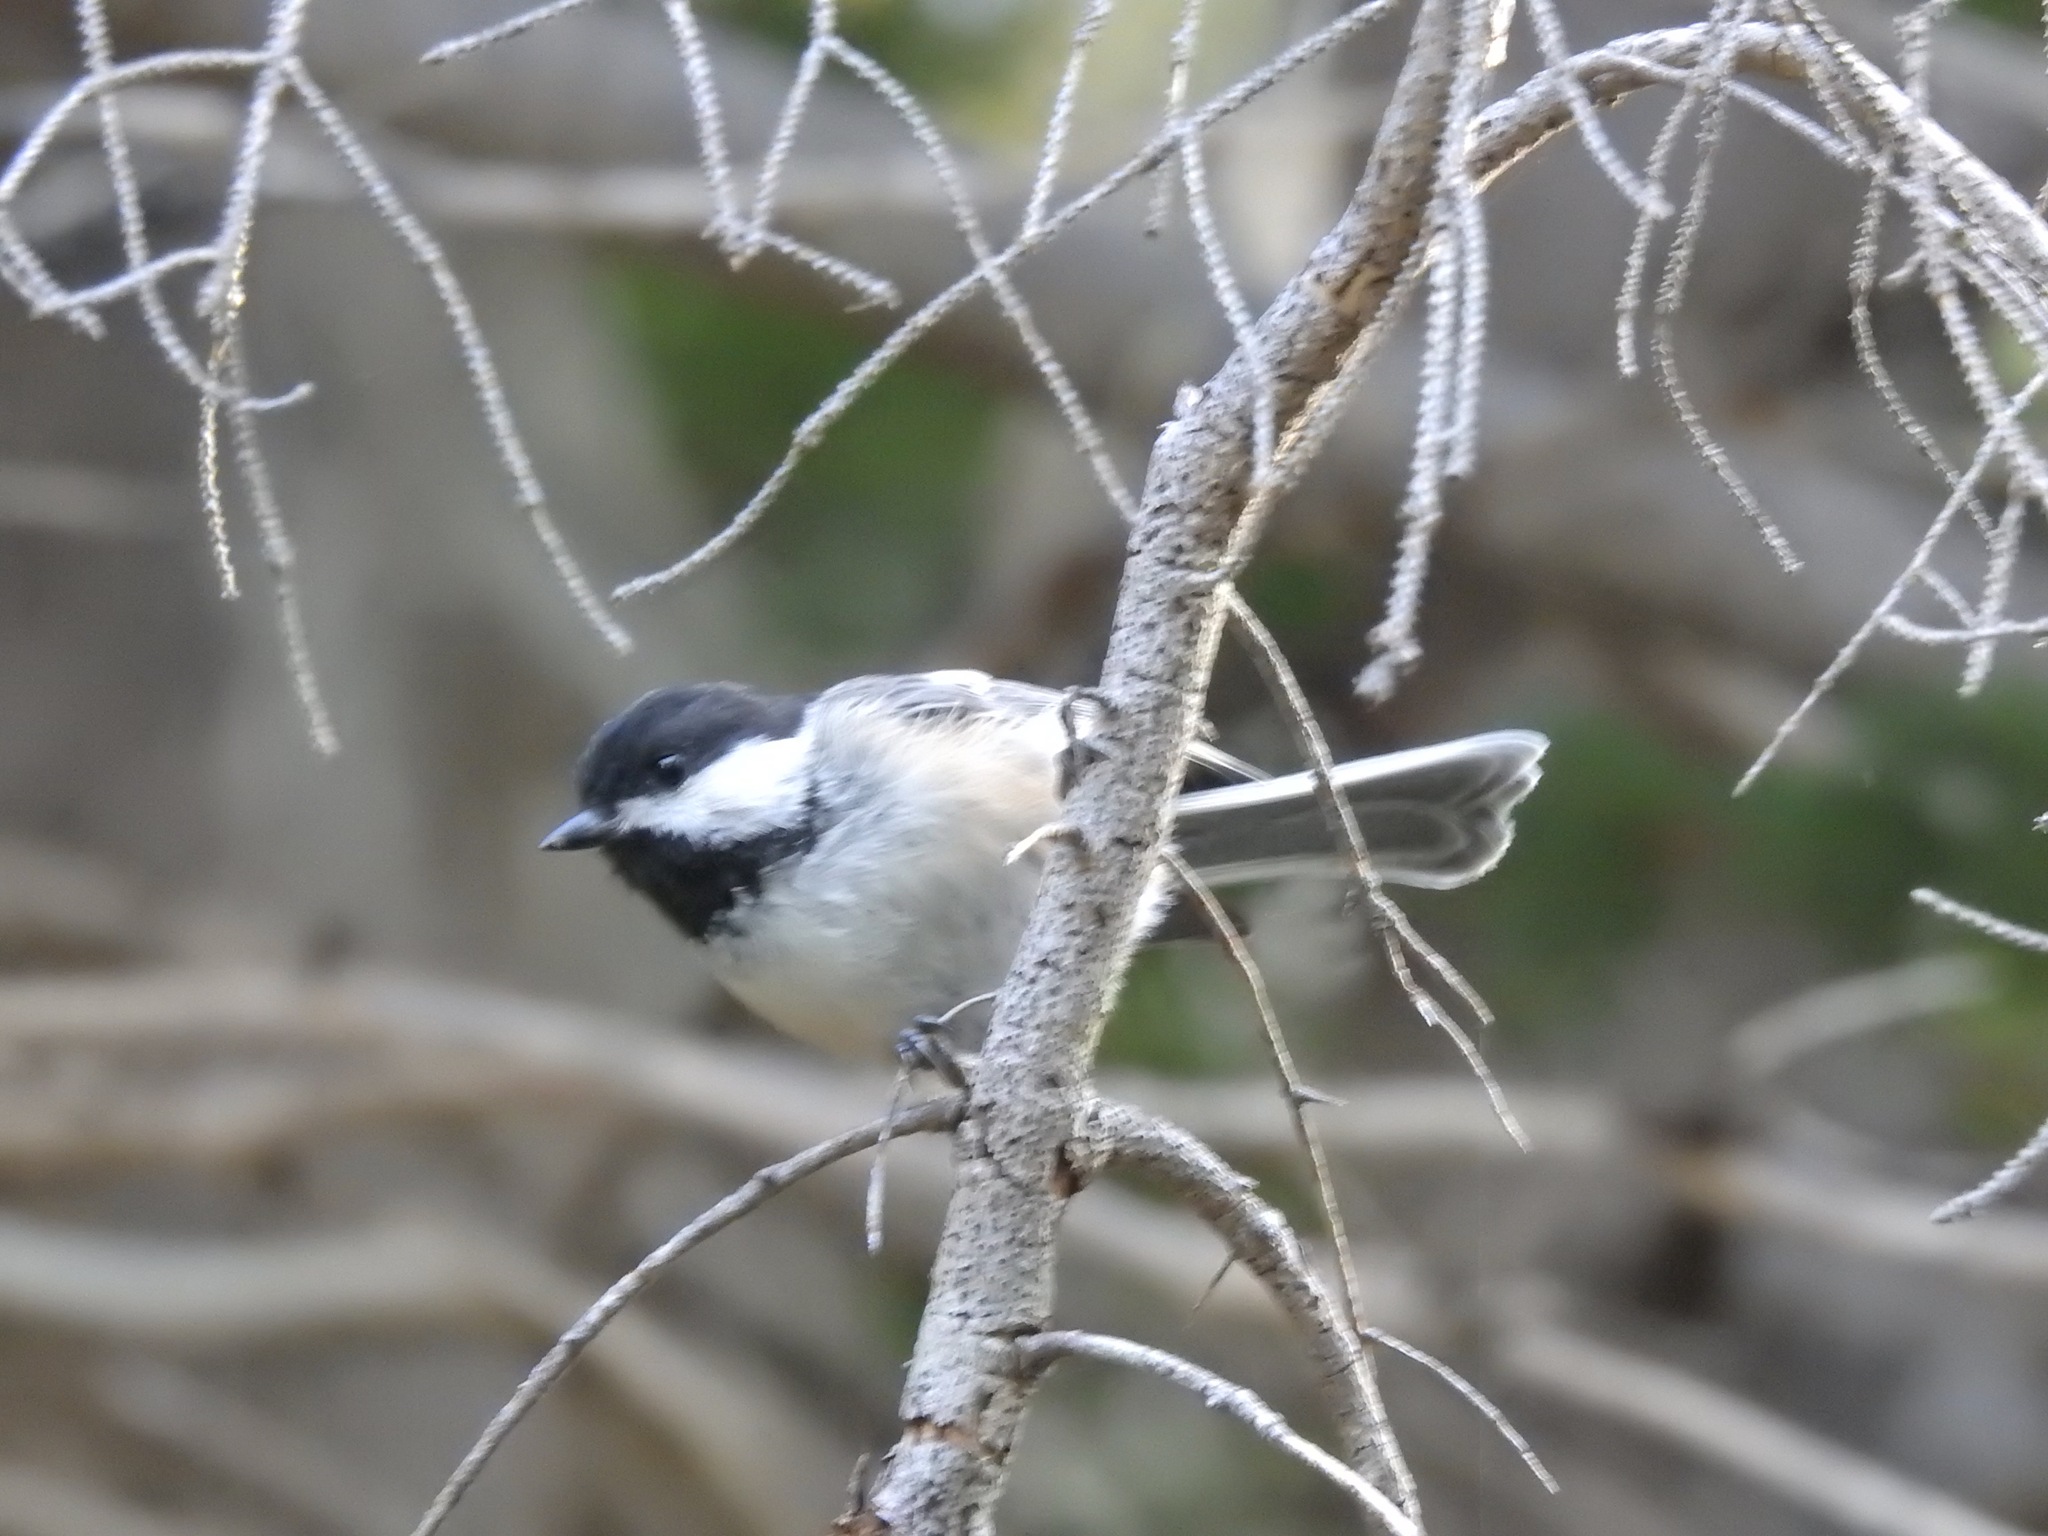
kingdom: Animalia
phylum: Chordata
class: Aves
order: Passeriformes
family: Paridae
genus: Poecile
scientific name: Poecile atricapillus
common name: Black-capped chickadee
